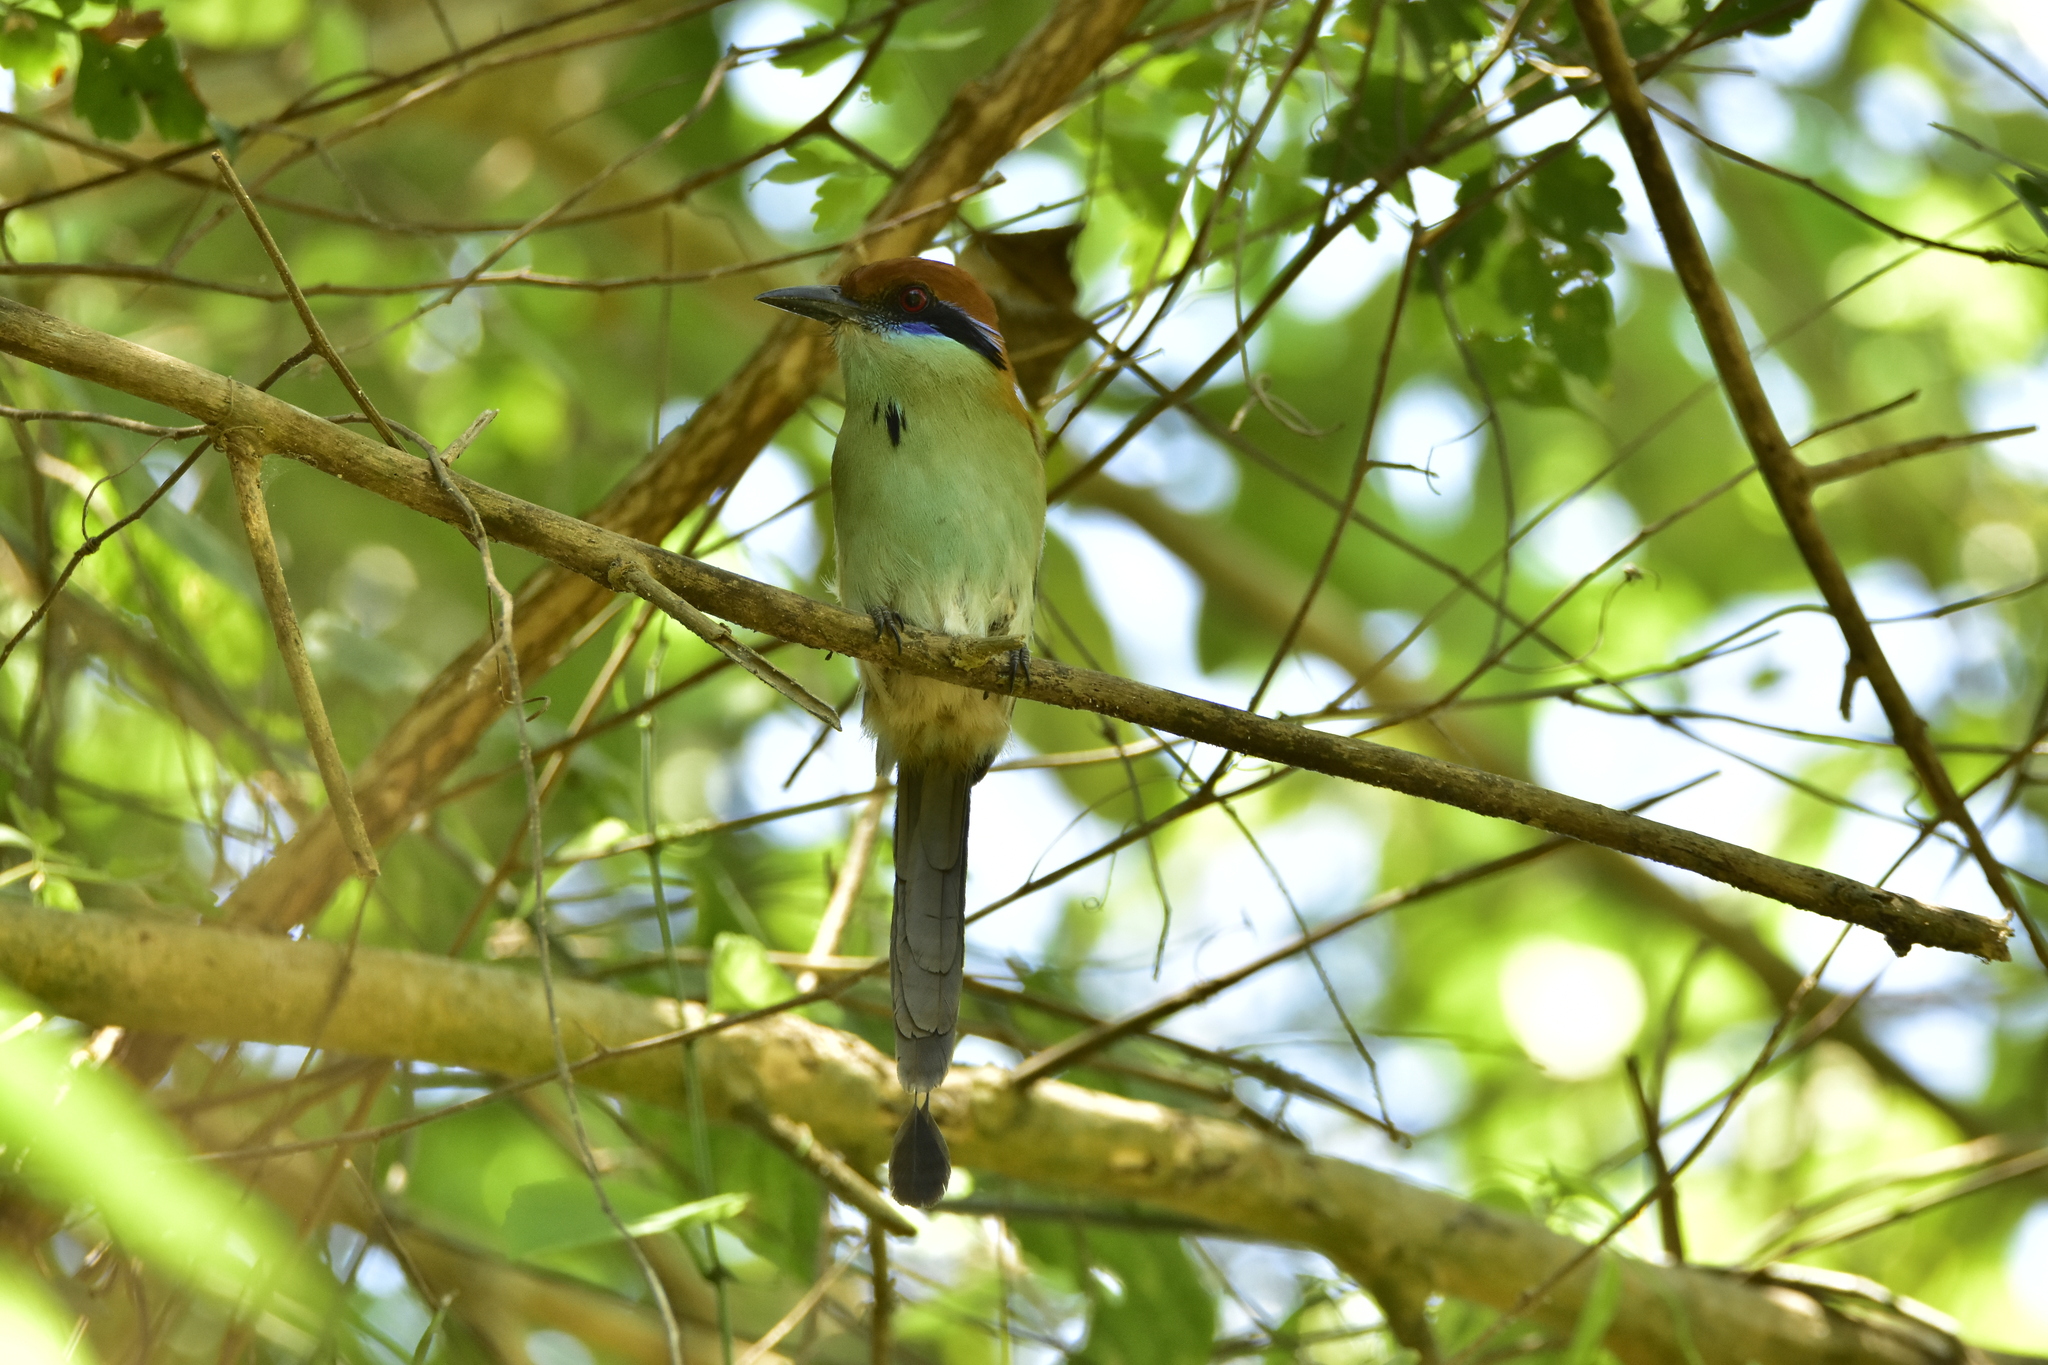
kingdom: Animalia
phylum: Chordata
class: Aves
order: Coraciiformes
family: Momotidae
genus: Momotus
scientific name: Momotus mexicanus
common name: Russet-crowned motmot
